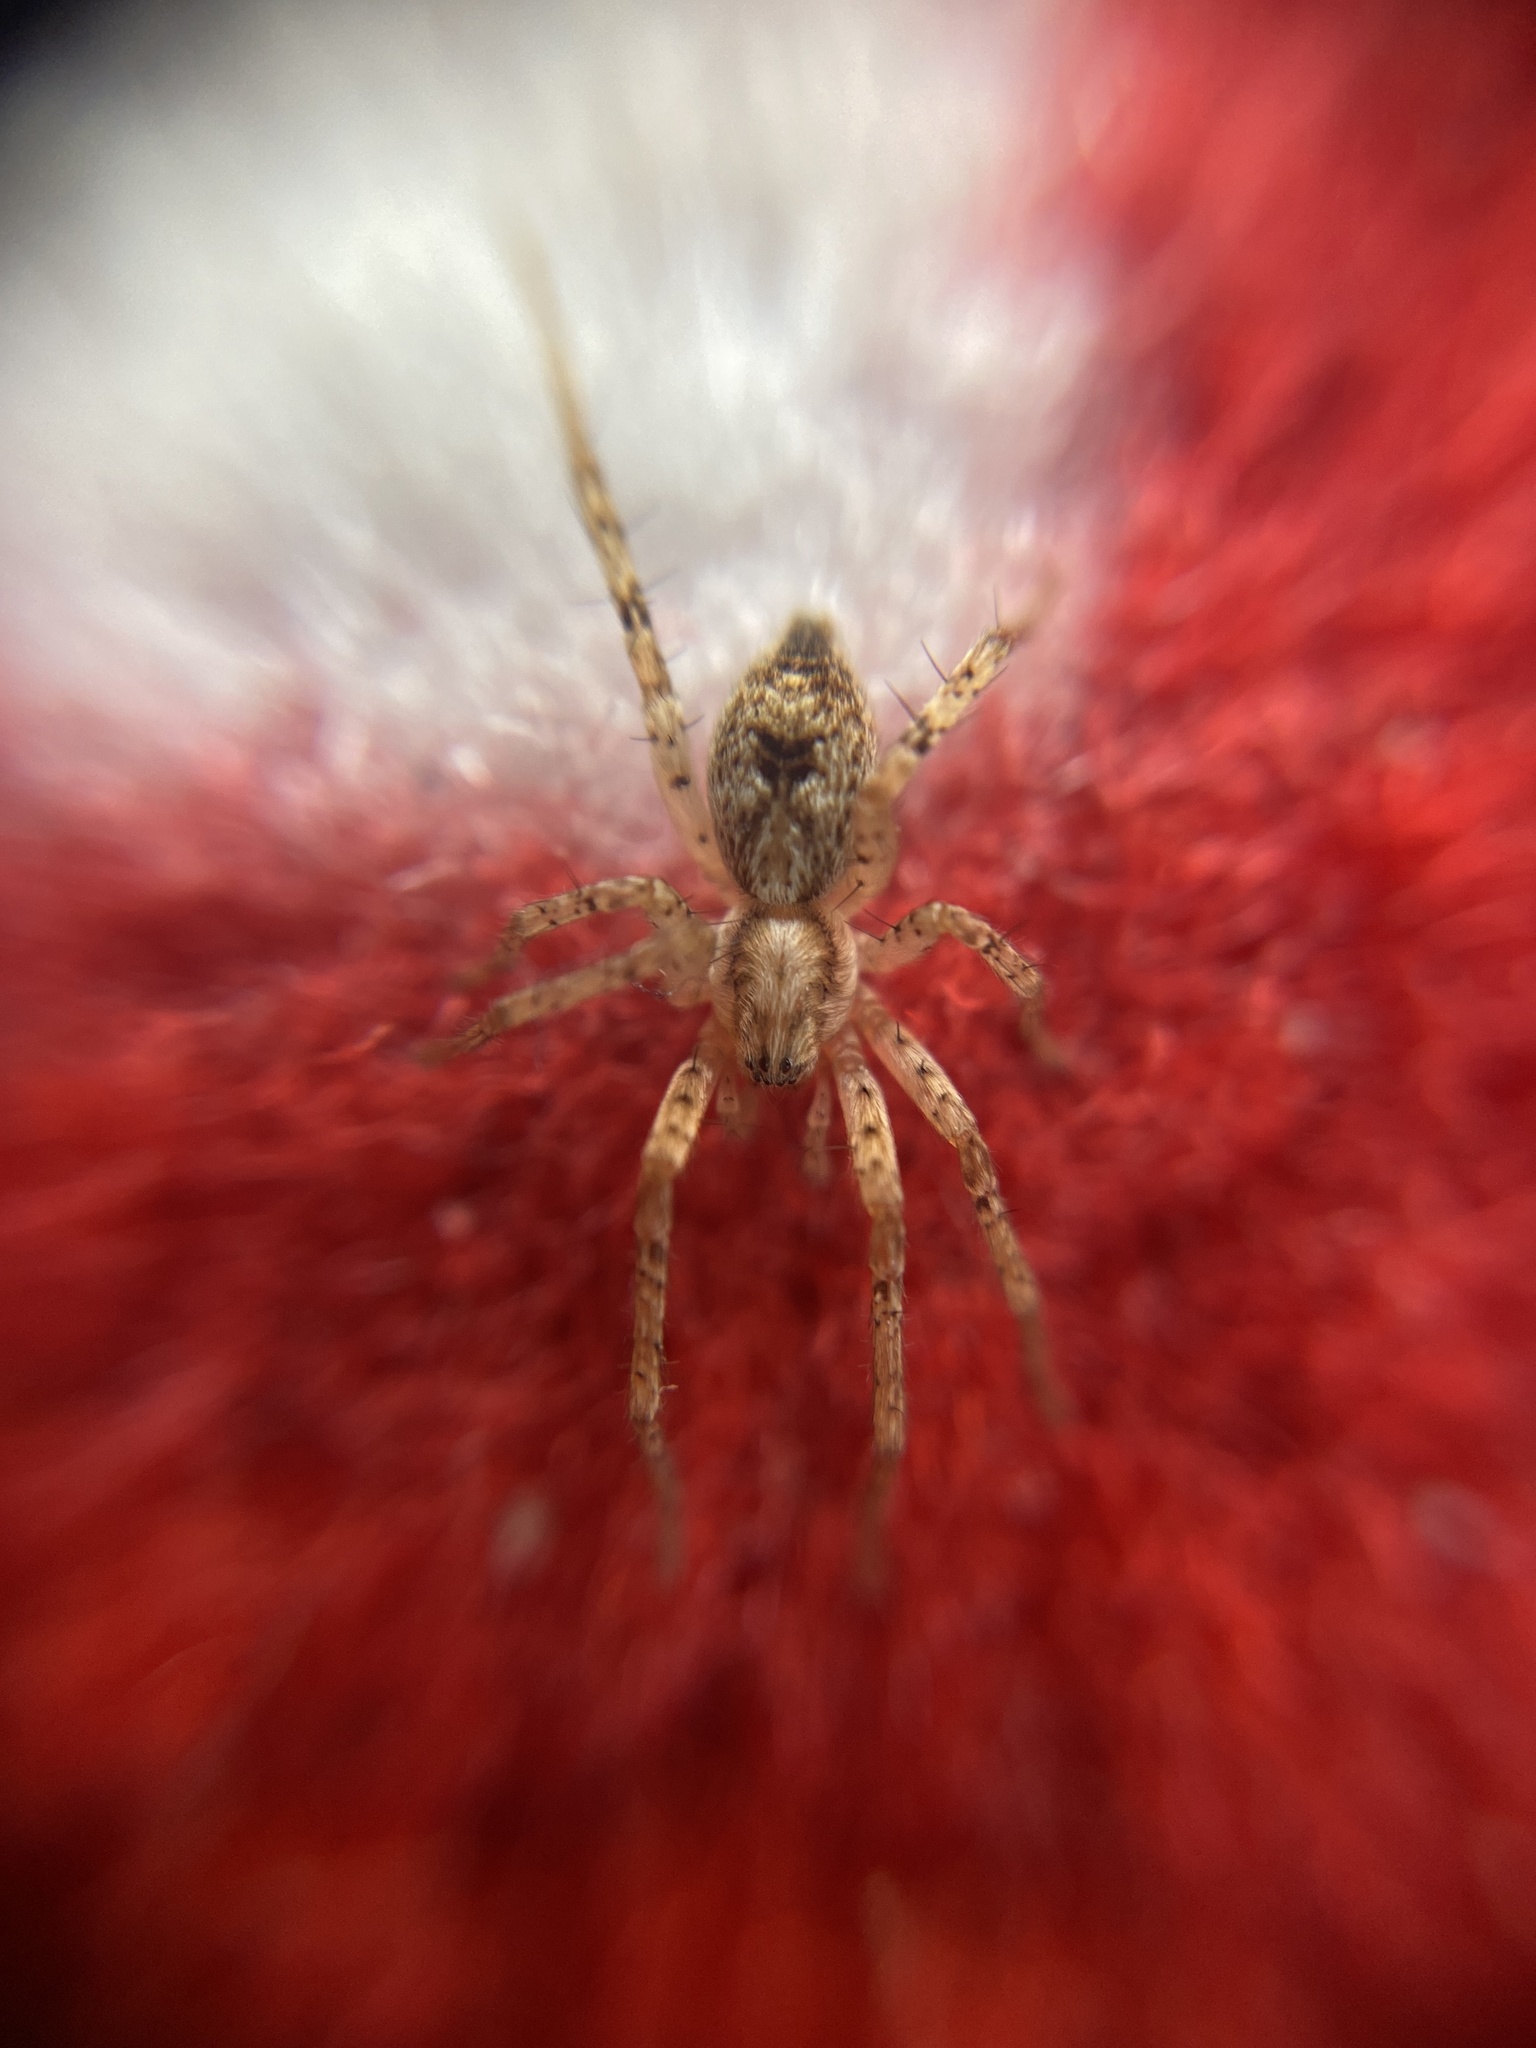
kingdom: Animalia
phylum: Arthropoda
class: Arachnida
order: Araneae
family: Anyphaenidae
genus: Anyphaena
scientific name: Anyphaena accentuata
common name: Buzzing spider
